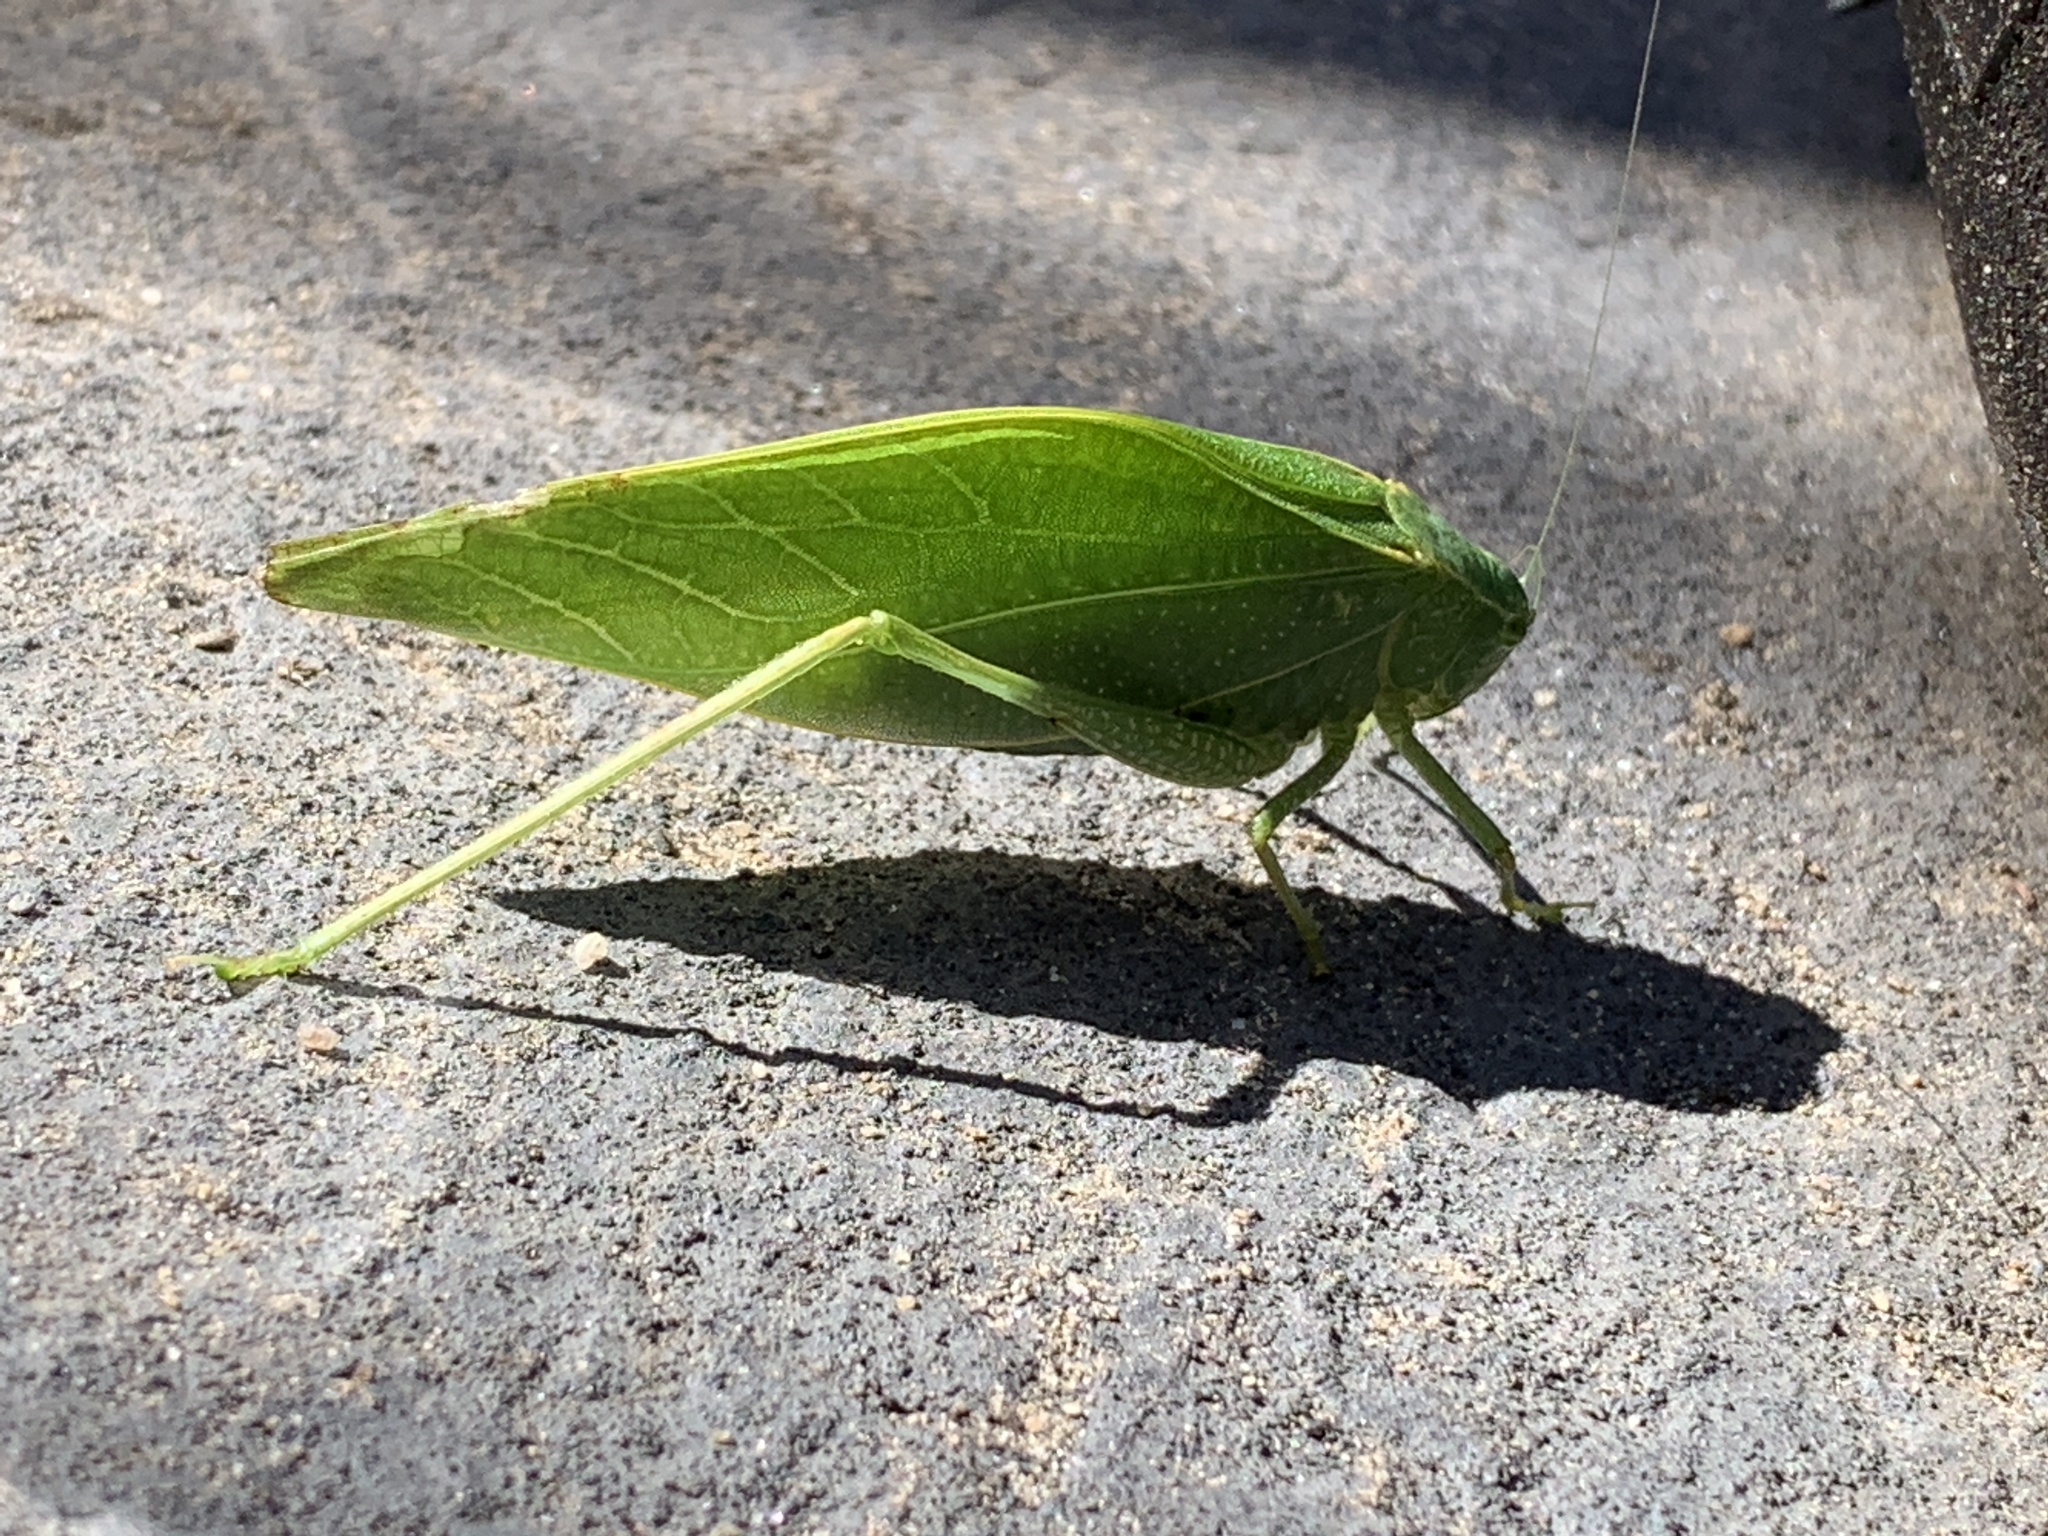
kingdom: Animalia
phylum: Arthropoda
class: Insecta
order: Orthoptera
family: Tettigoniidae
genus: Microcentrum
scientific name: Microcentrum rhombifolium
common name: Broad-winged katydid
